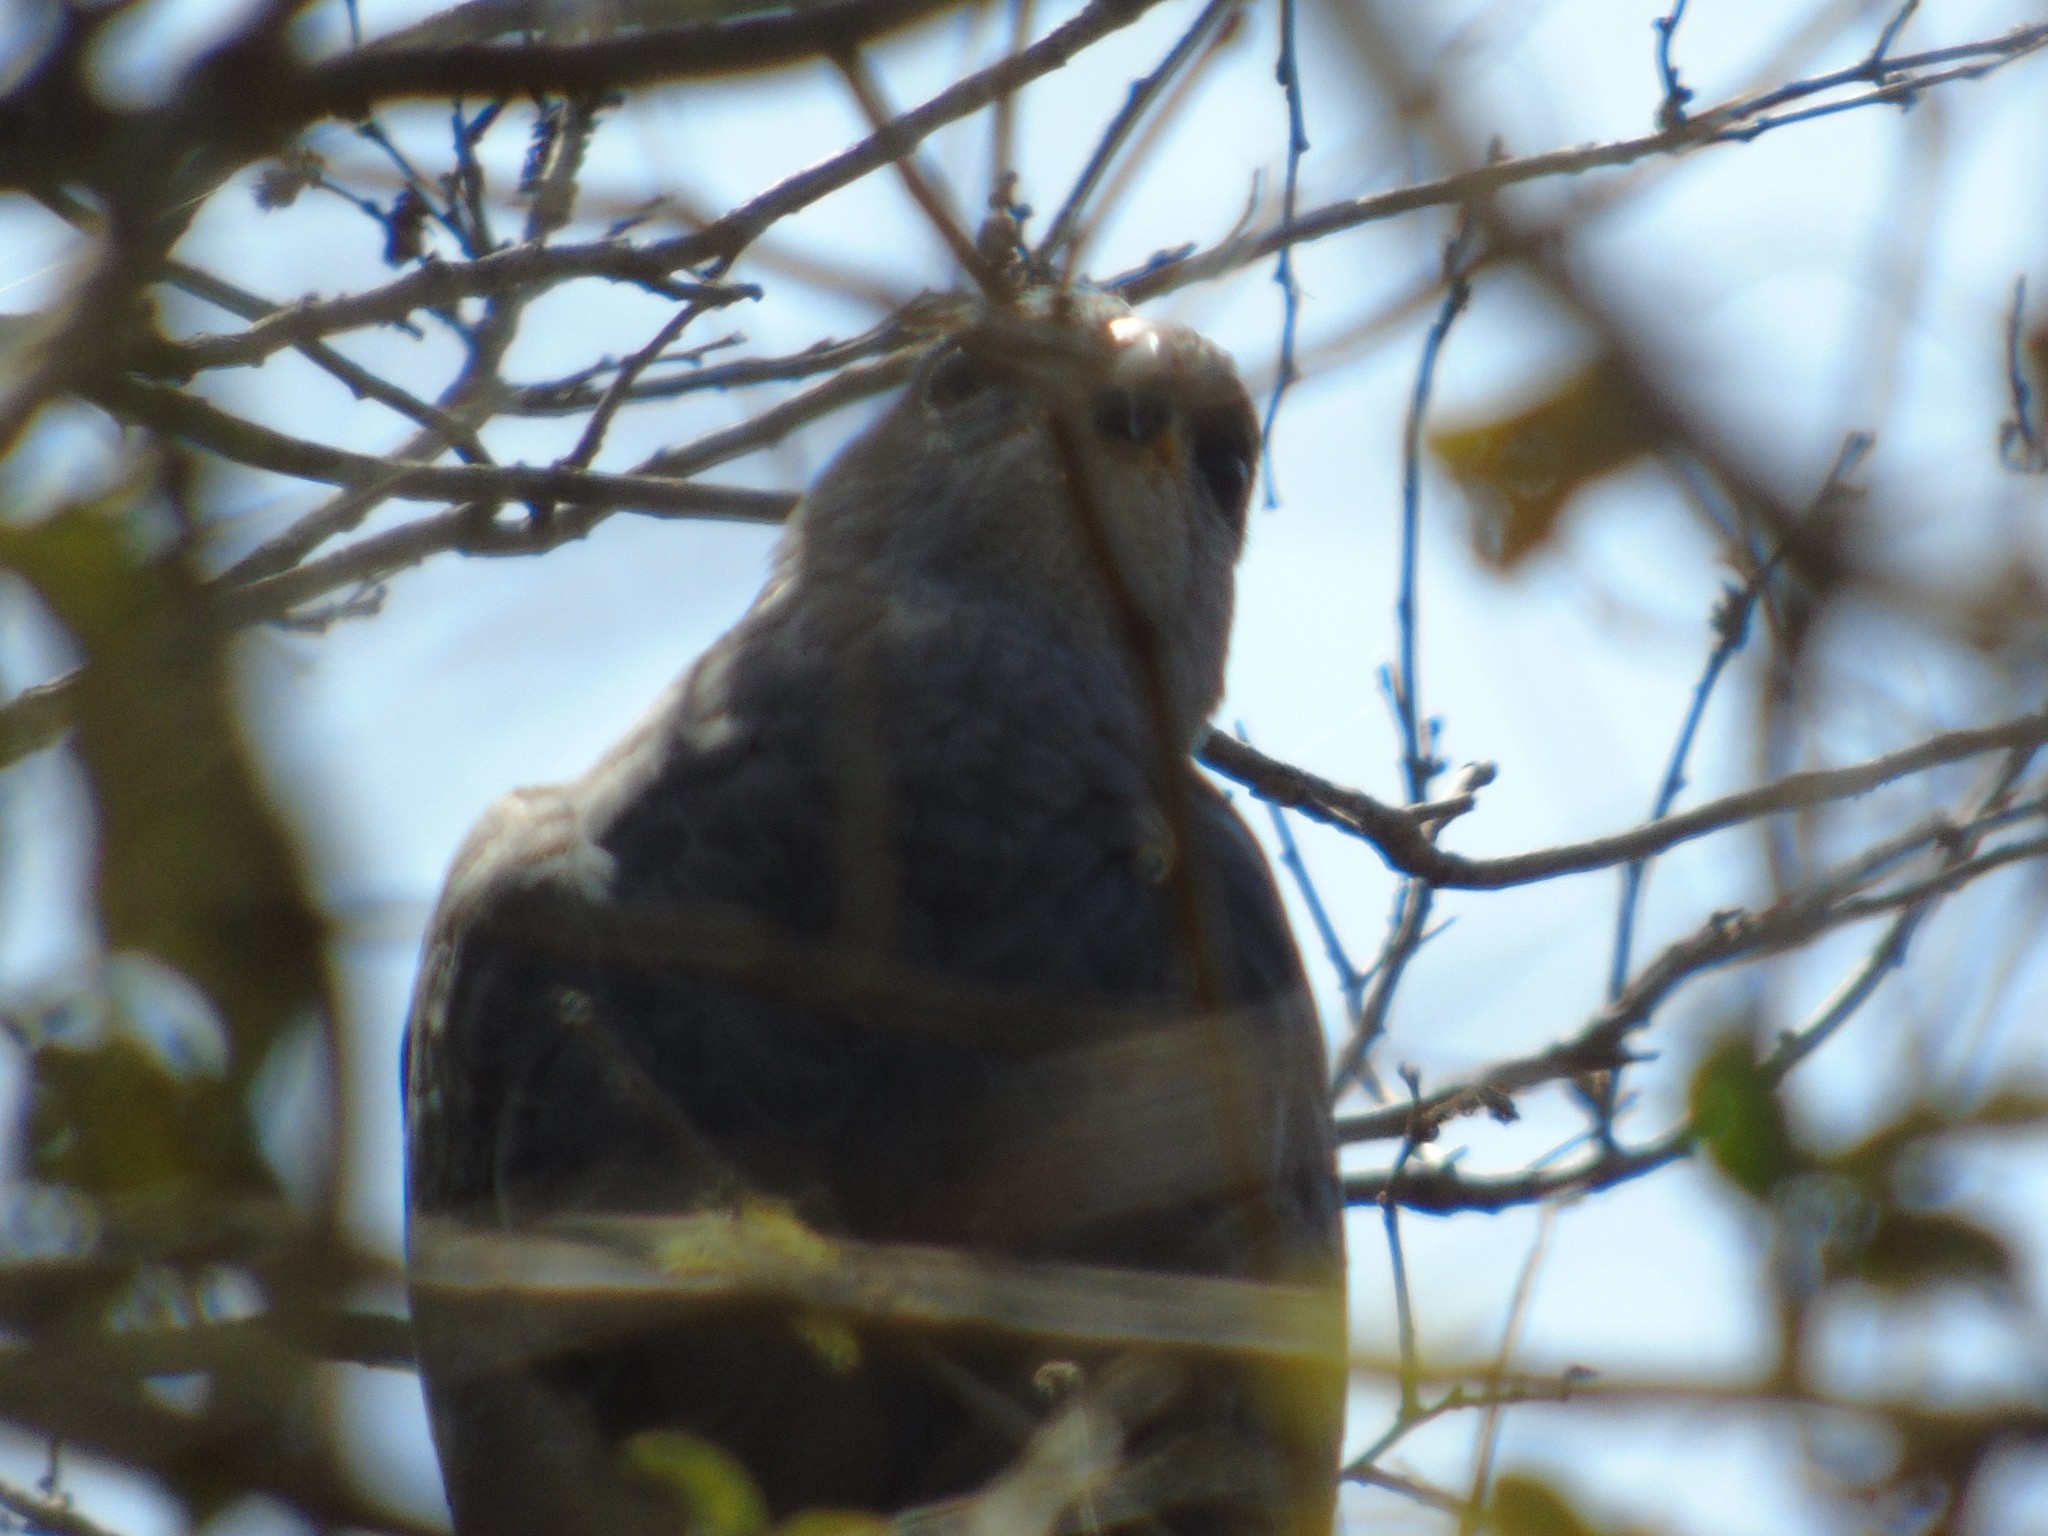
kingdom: Animalia
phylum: Chordata
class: Aves
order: Accipitriformes
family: Accipitridae
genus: Buteo
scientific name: Buteo nitidus
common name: Grey-lined hawk
